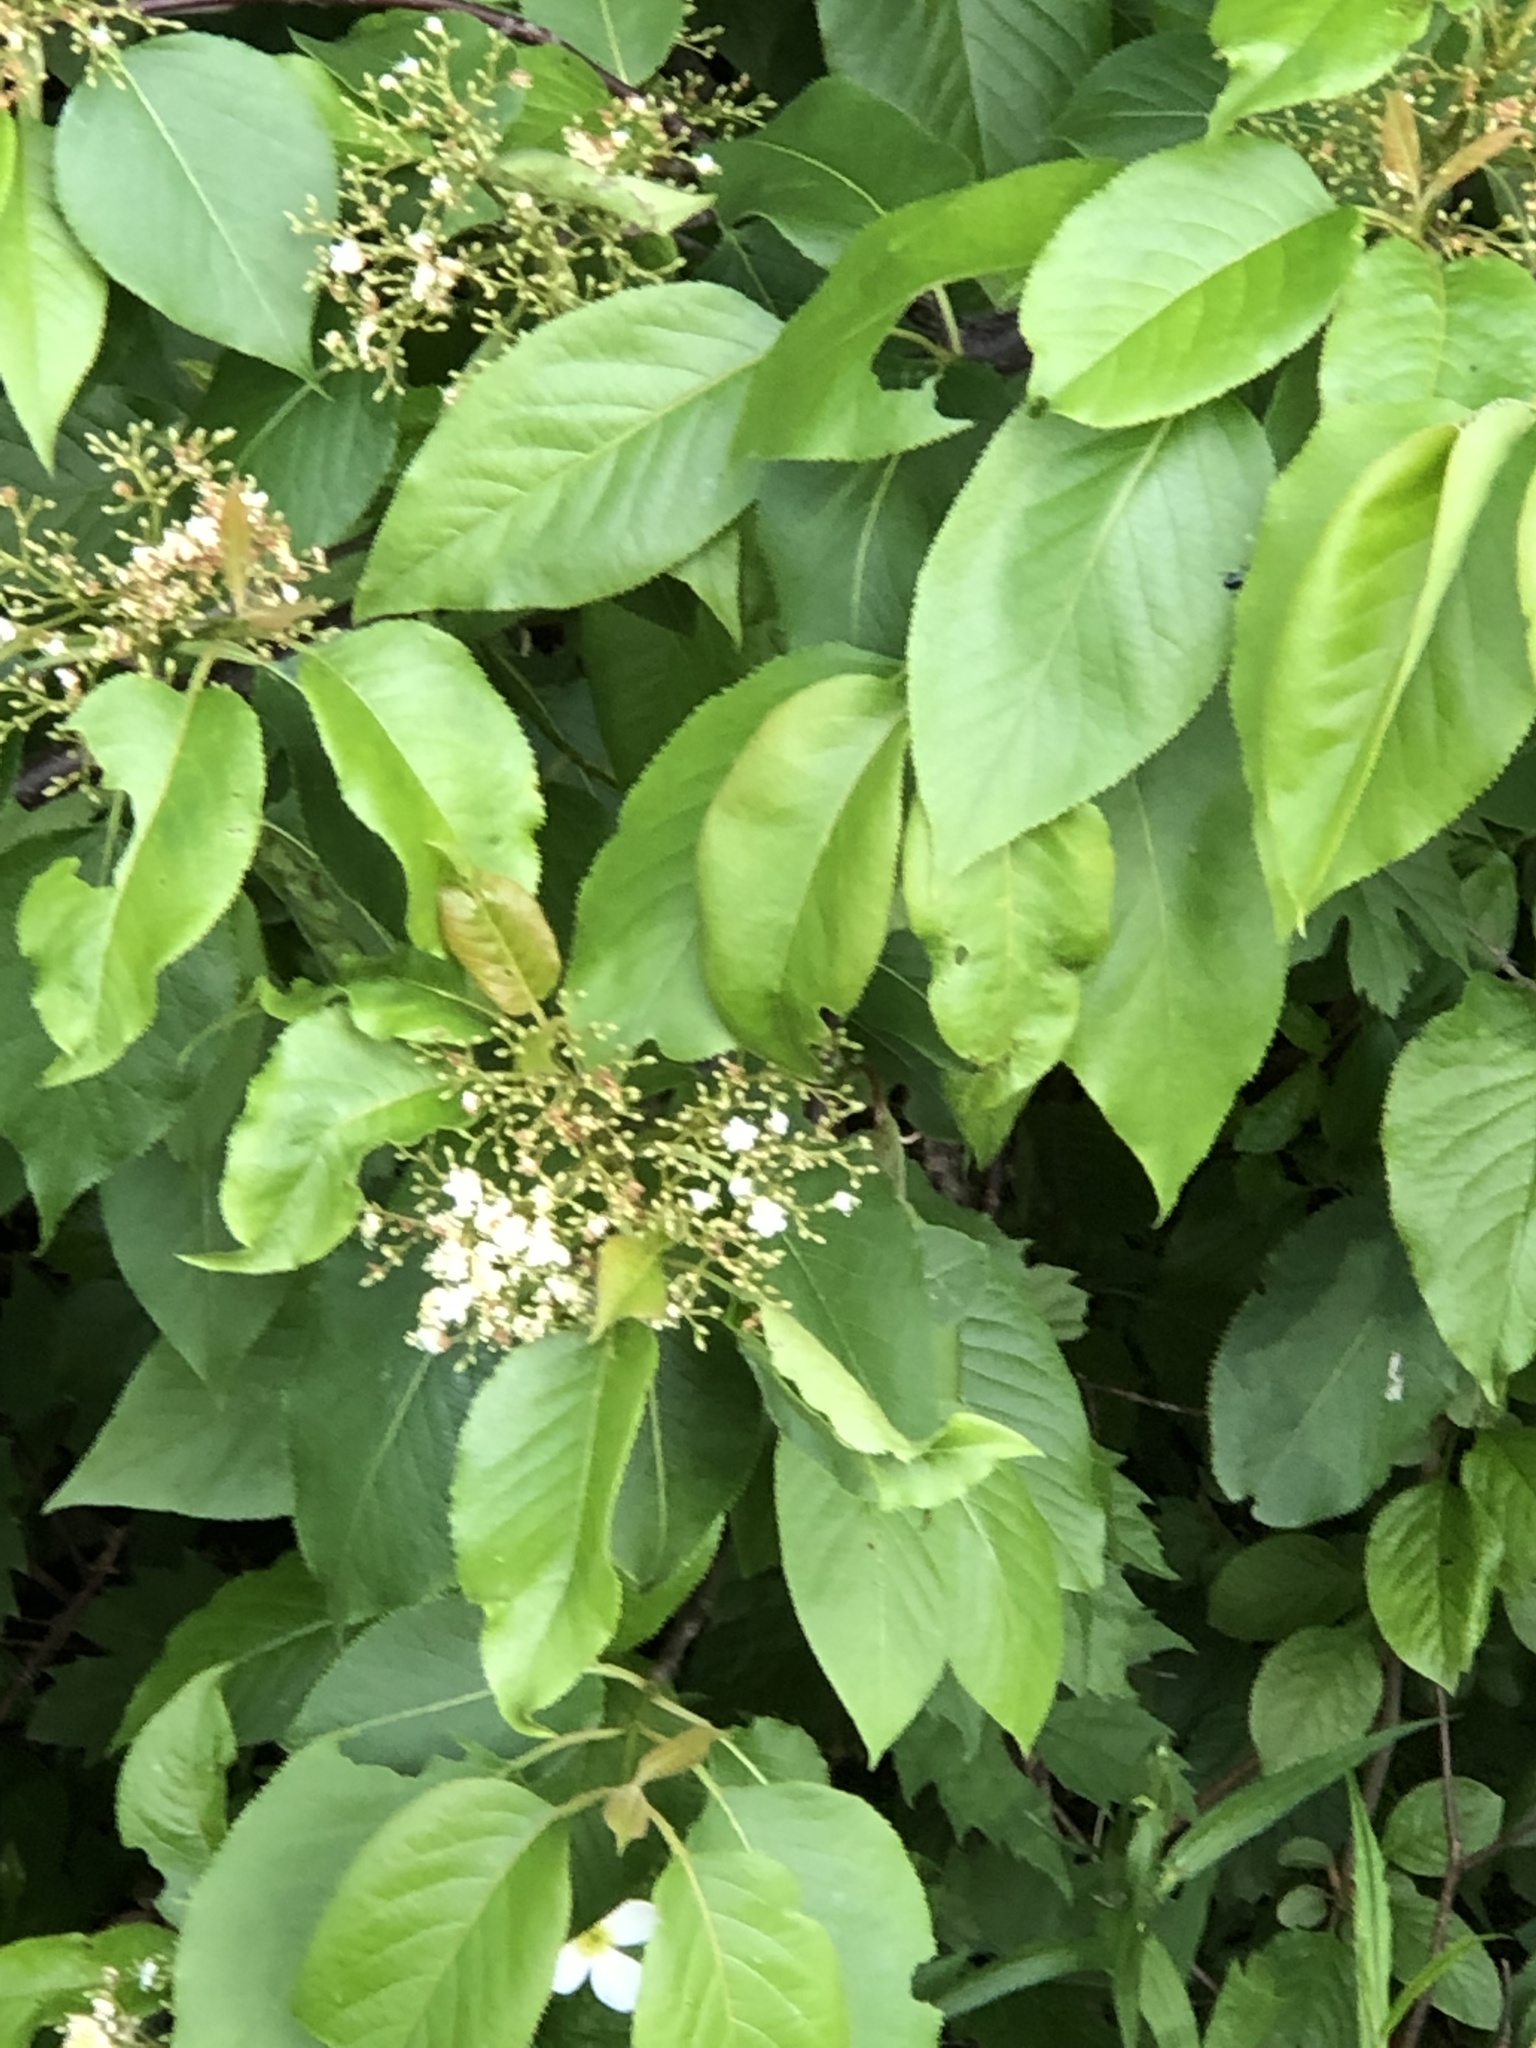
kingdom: Plantae
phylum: Tracheophyta
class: Magnoliopsida
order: Dipsacales
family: Viburnaceae
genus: Viburnum
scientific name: Viburnum lentago
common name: Black haw
